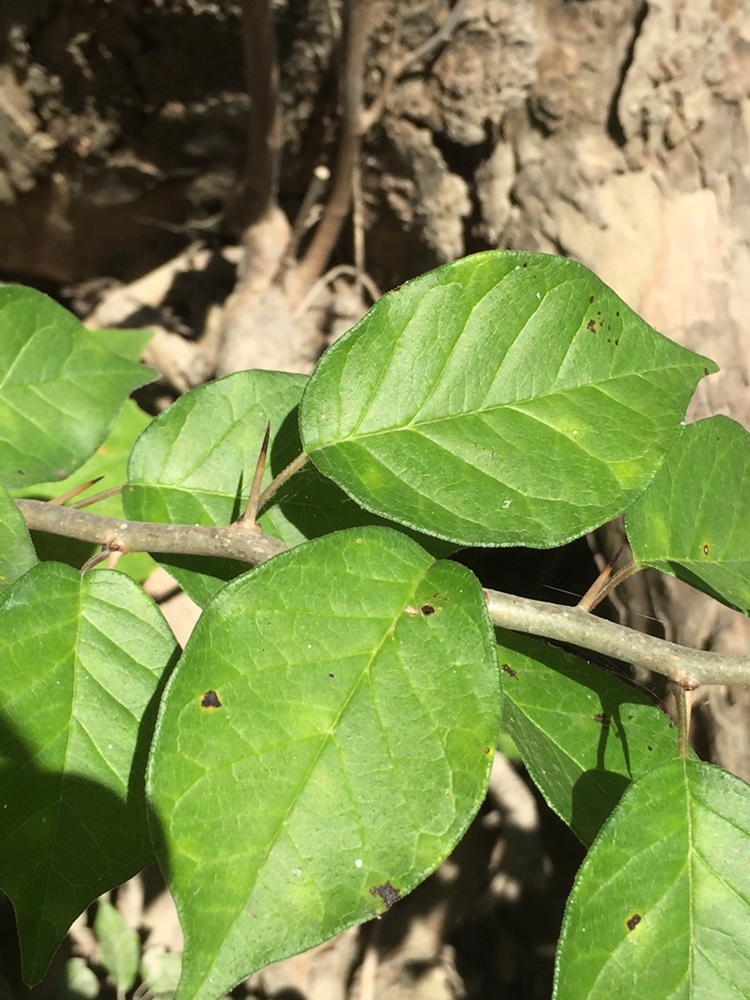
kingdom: Plantae
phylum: Tracheophyta
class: Magnoliopsida
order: Rosales
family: Moraceae
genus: Maclura
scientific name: Maclura pomifera
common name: Osage-orange
